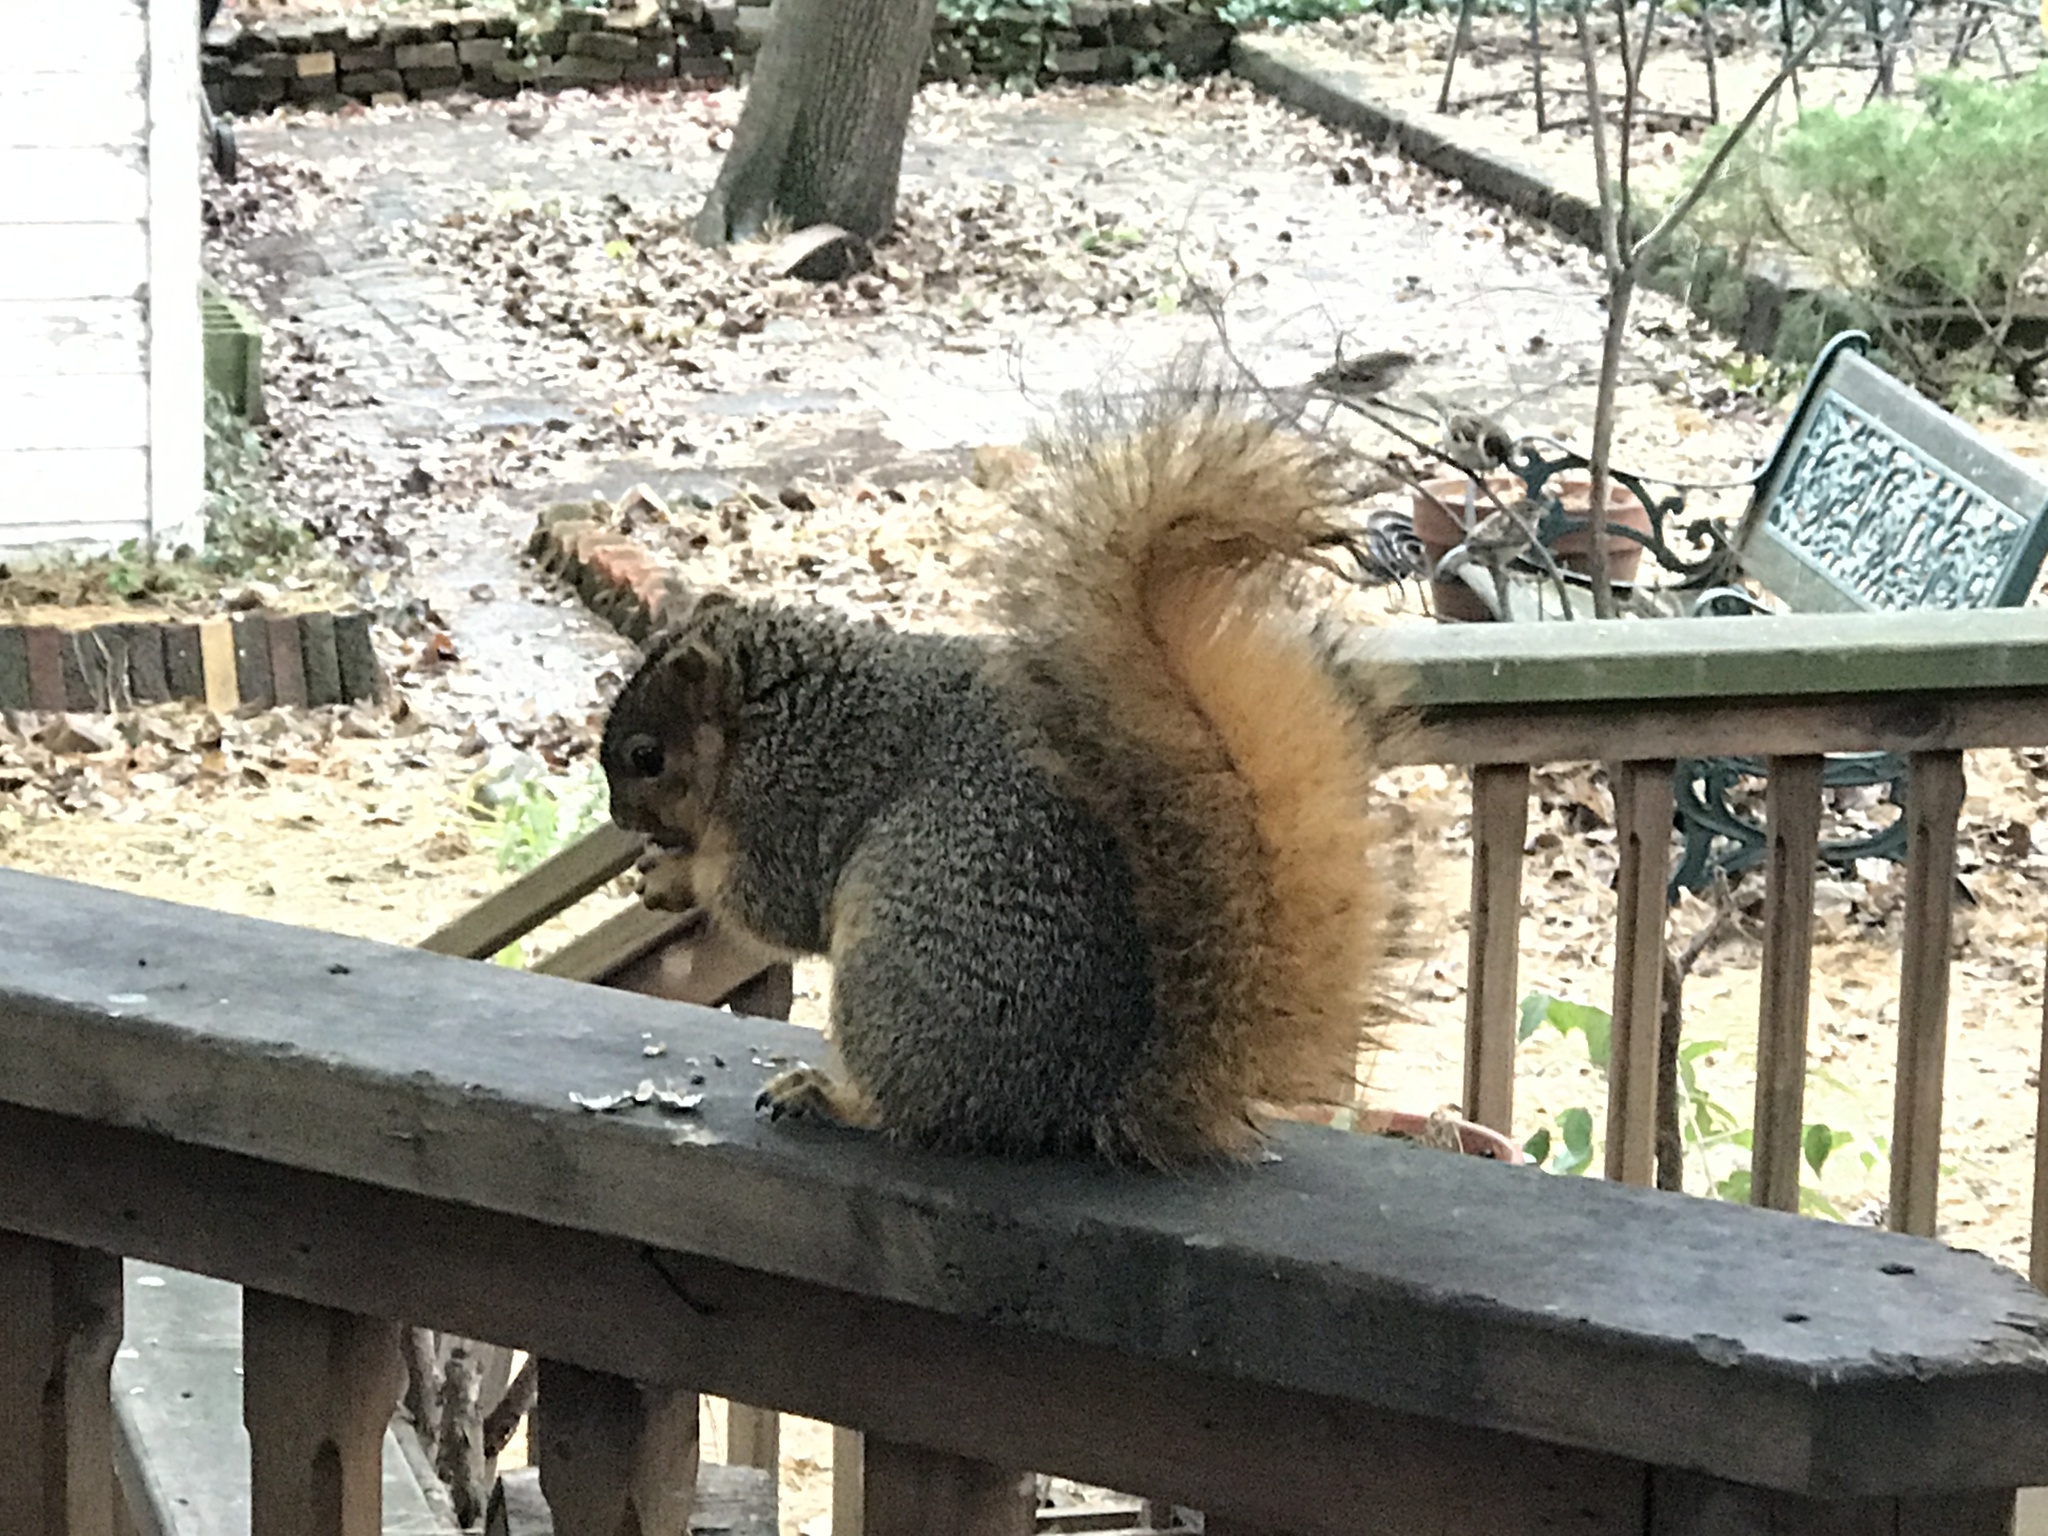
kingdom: Animalia
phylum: Chordata
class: Mammalia
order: Rodentia
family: Sciuridae
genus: Sciurus
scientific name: Sciurus niger
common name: Fox squirrel
